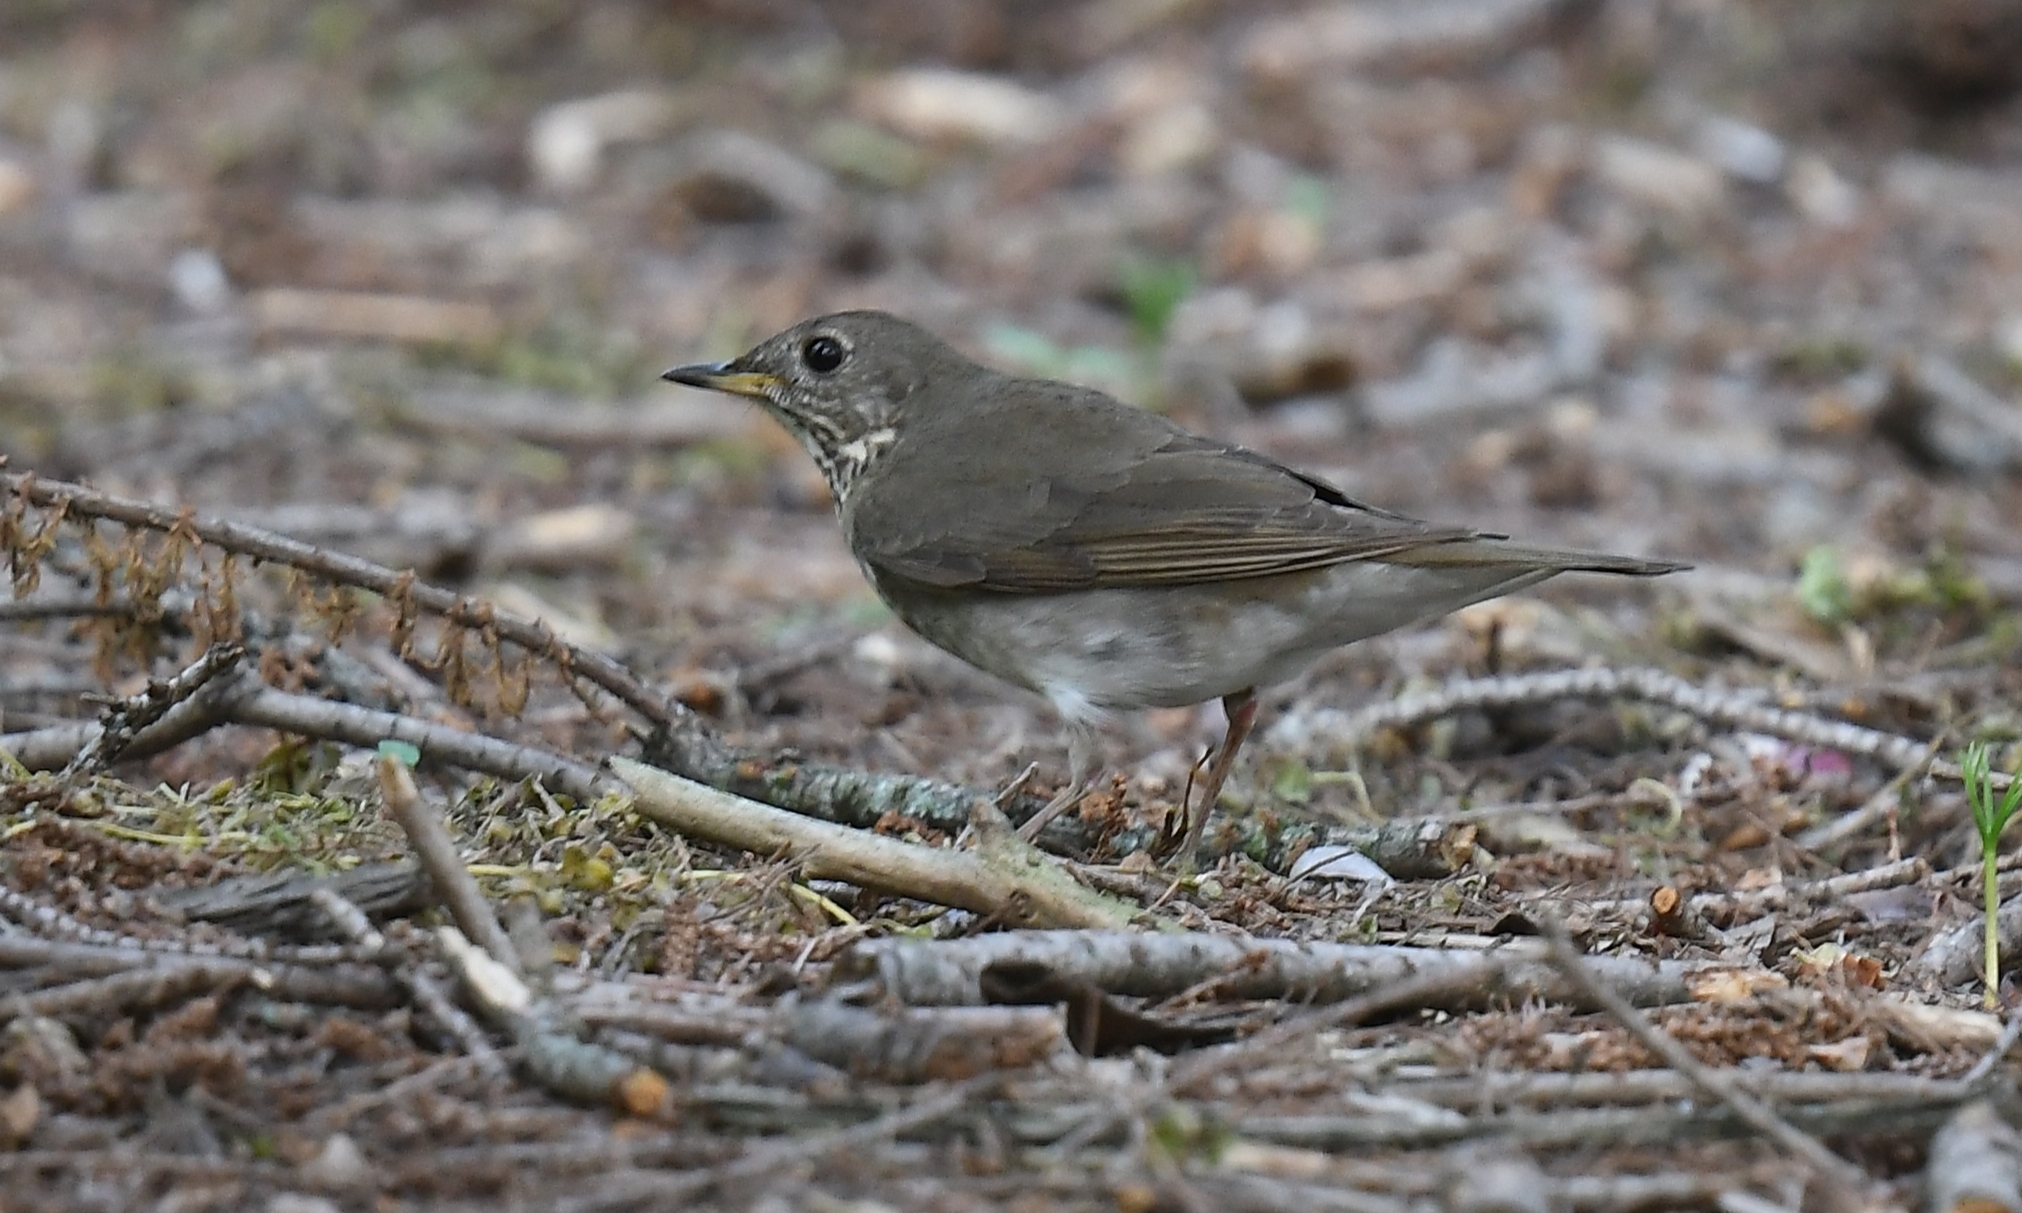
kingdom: Animalia
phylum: Chordata
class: Aves
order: Passeriformes
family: Turdidae
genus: Catharus
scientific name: Catharus minimus
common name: Grey-cheeked thrush
